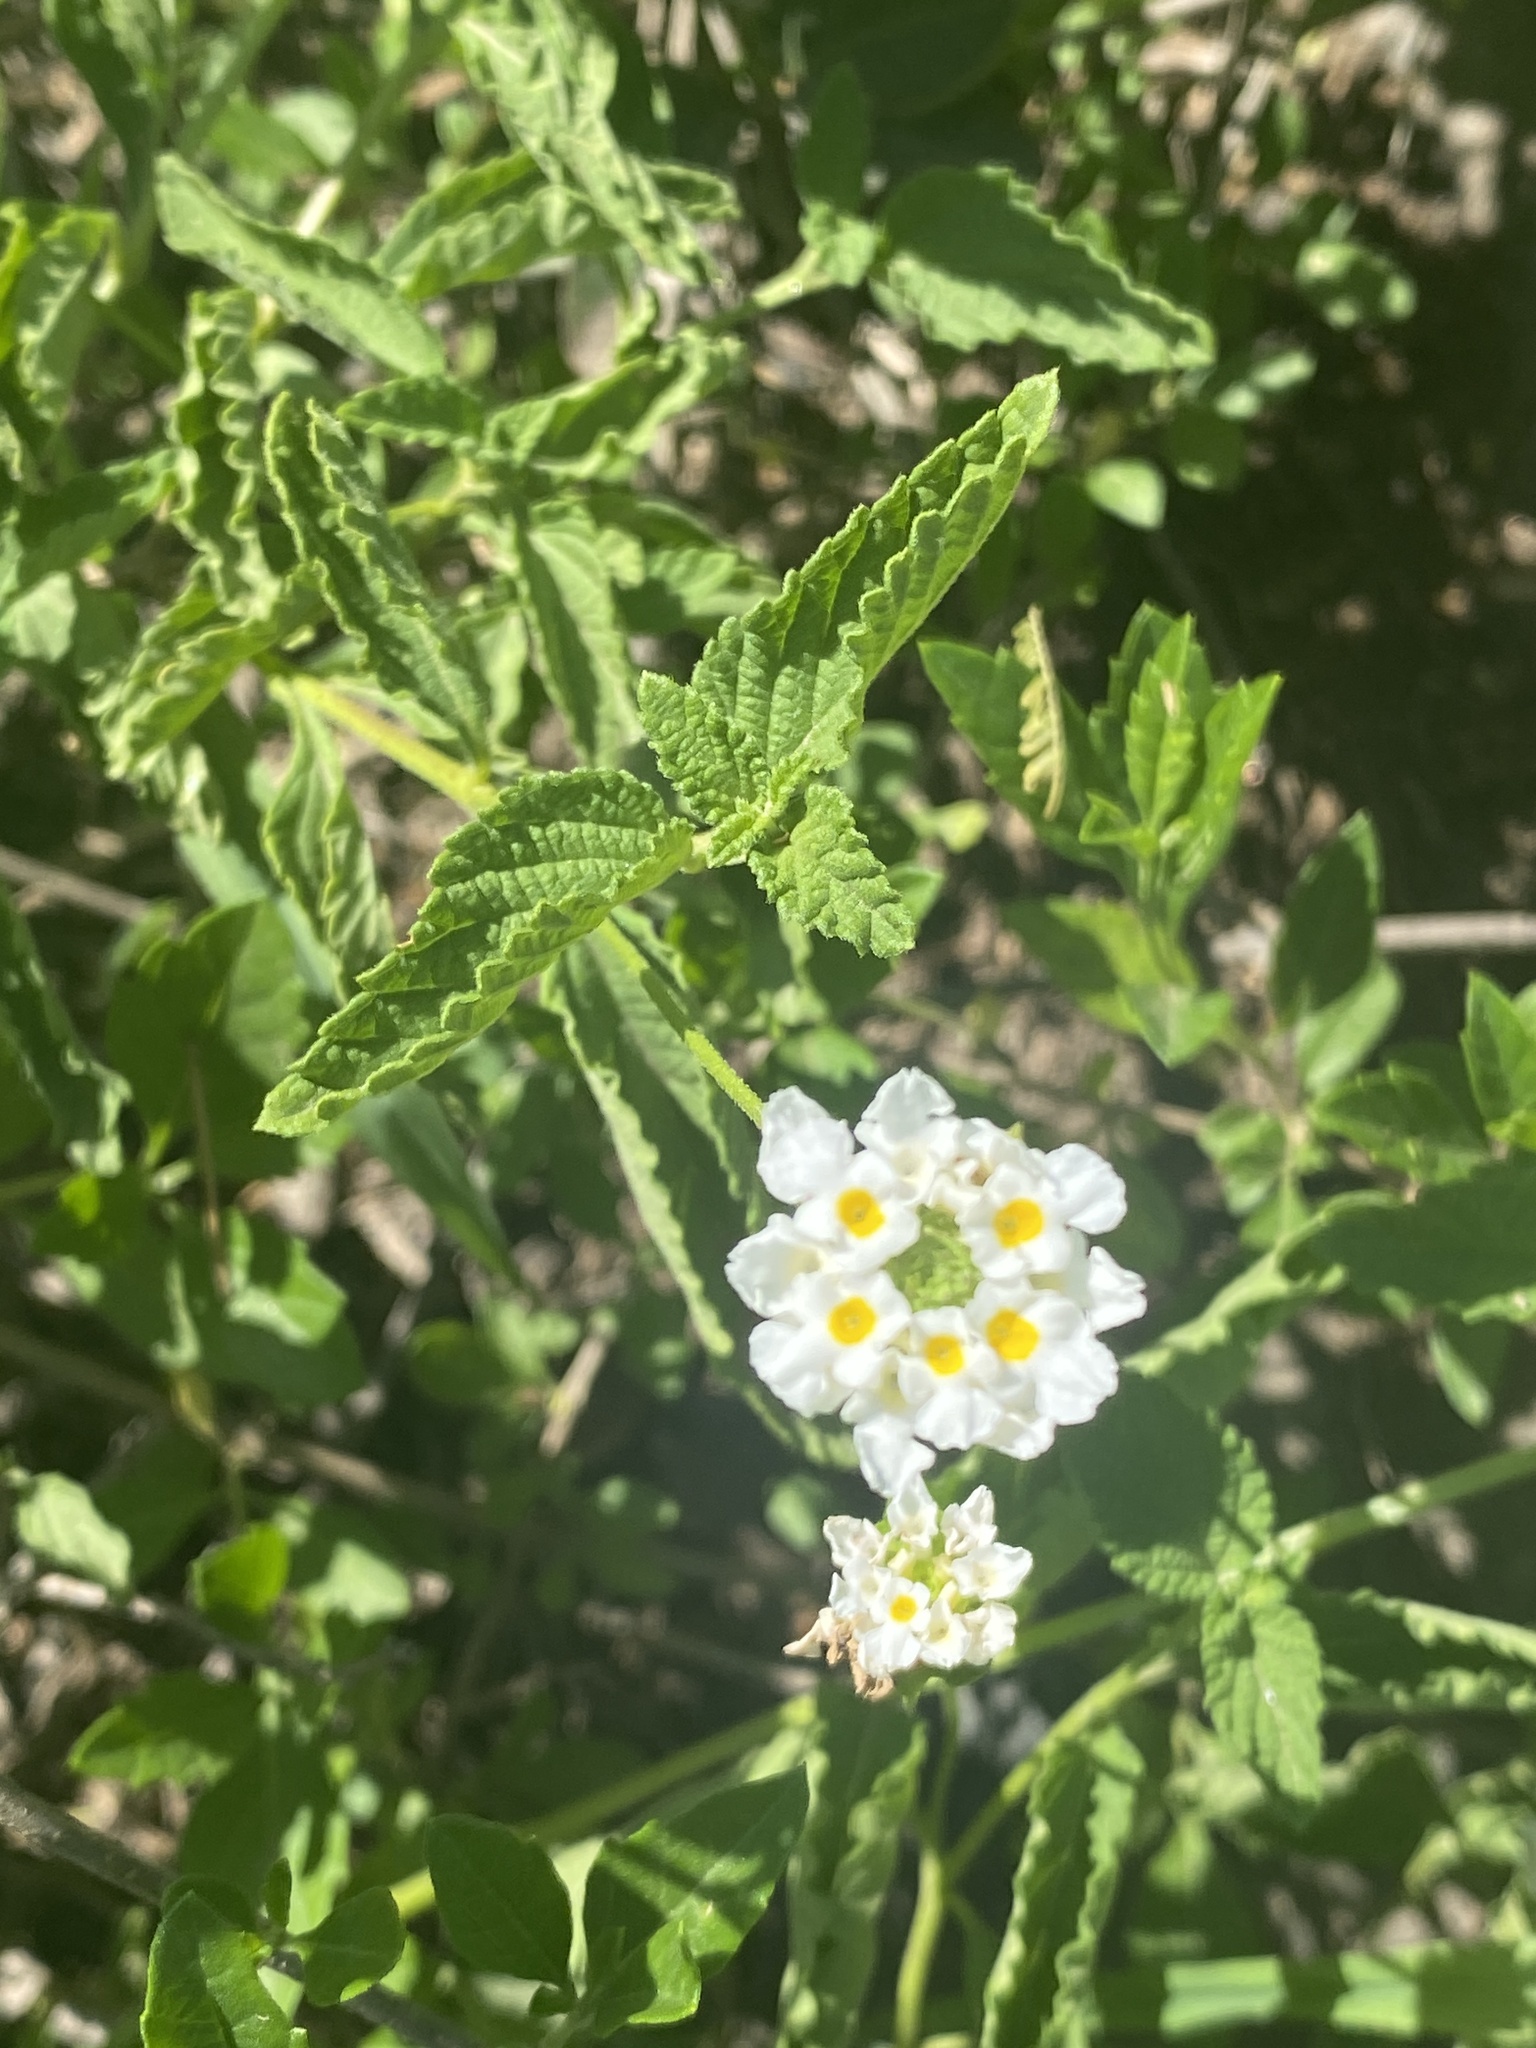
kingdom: Plantae
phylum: Tracheophyta
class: Magnoliopsida
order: Lamiales
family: Verbenaceae
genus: Lantana
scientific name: Lantana grisebachii
